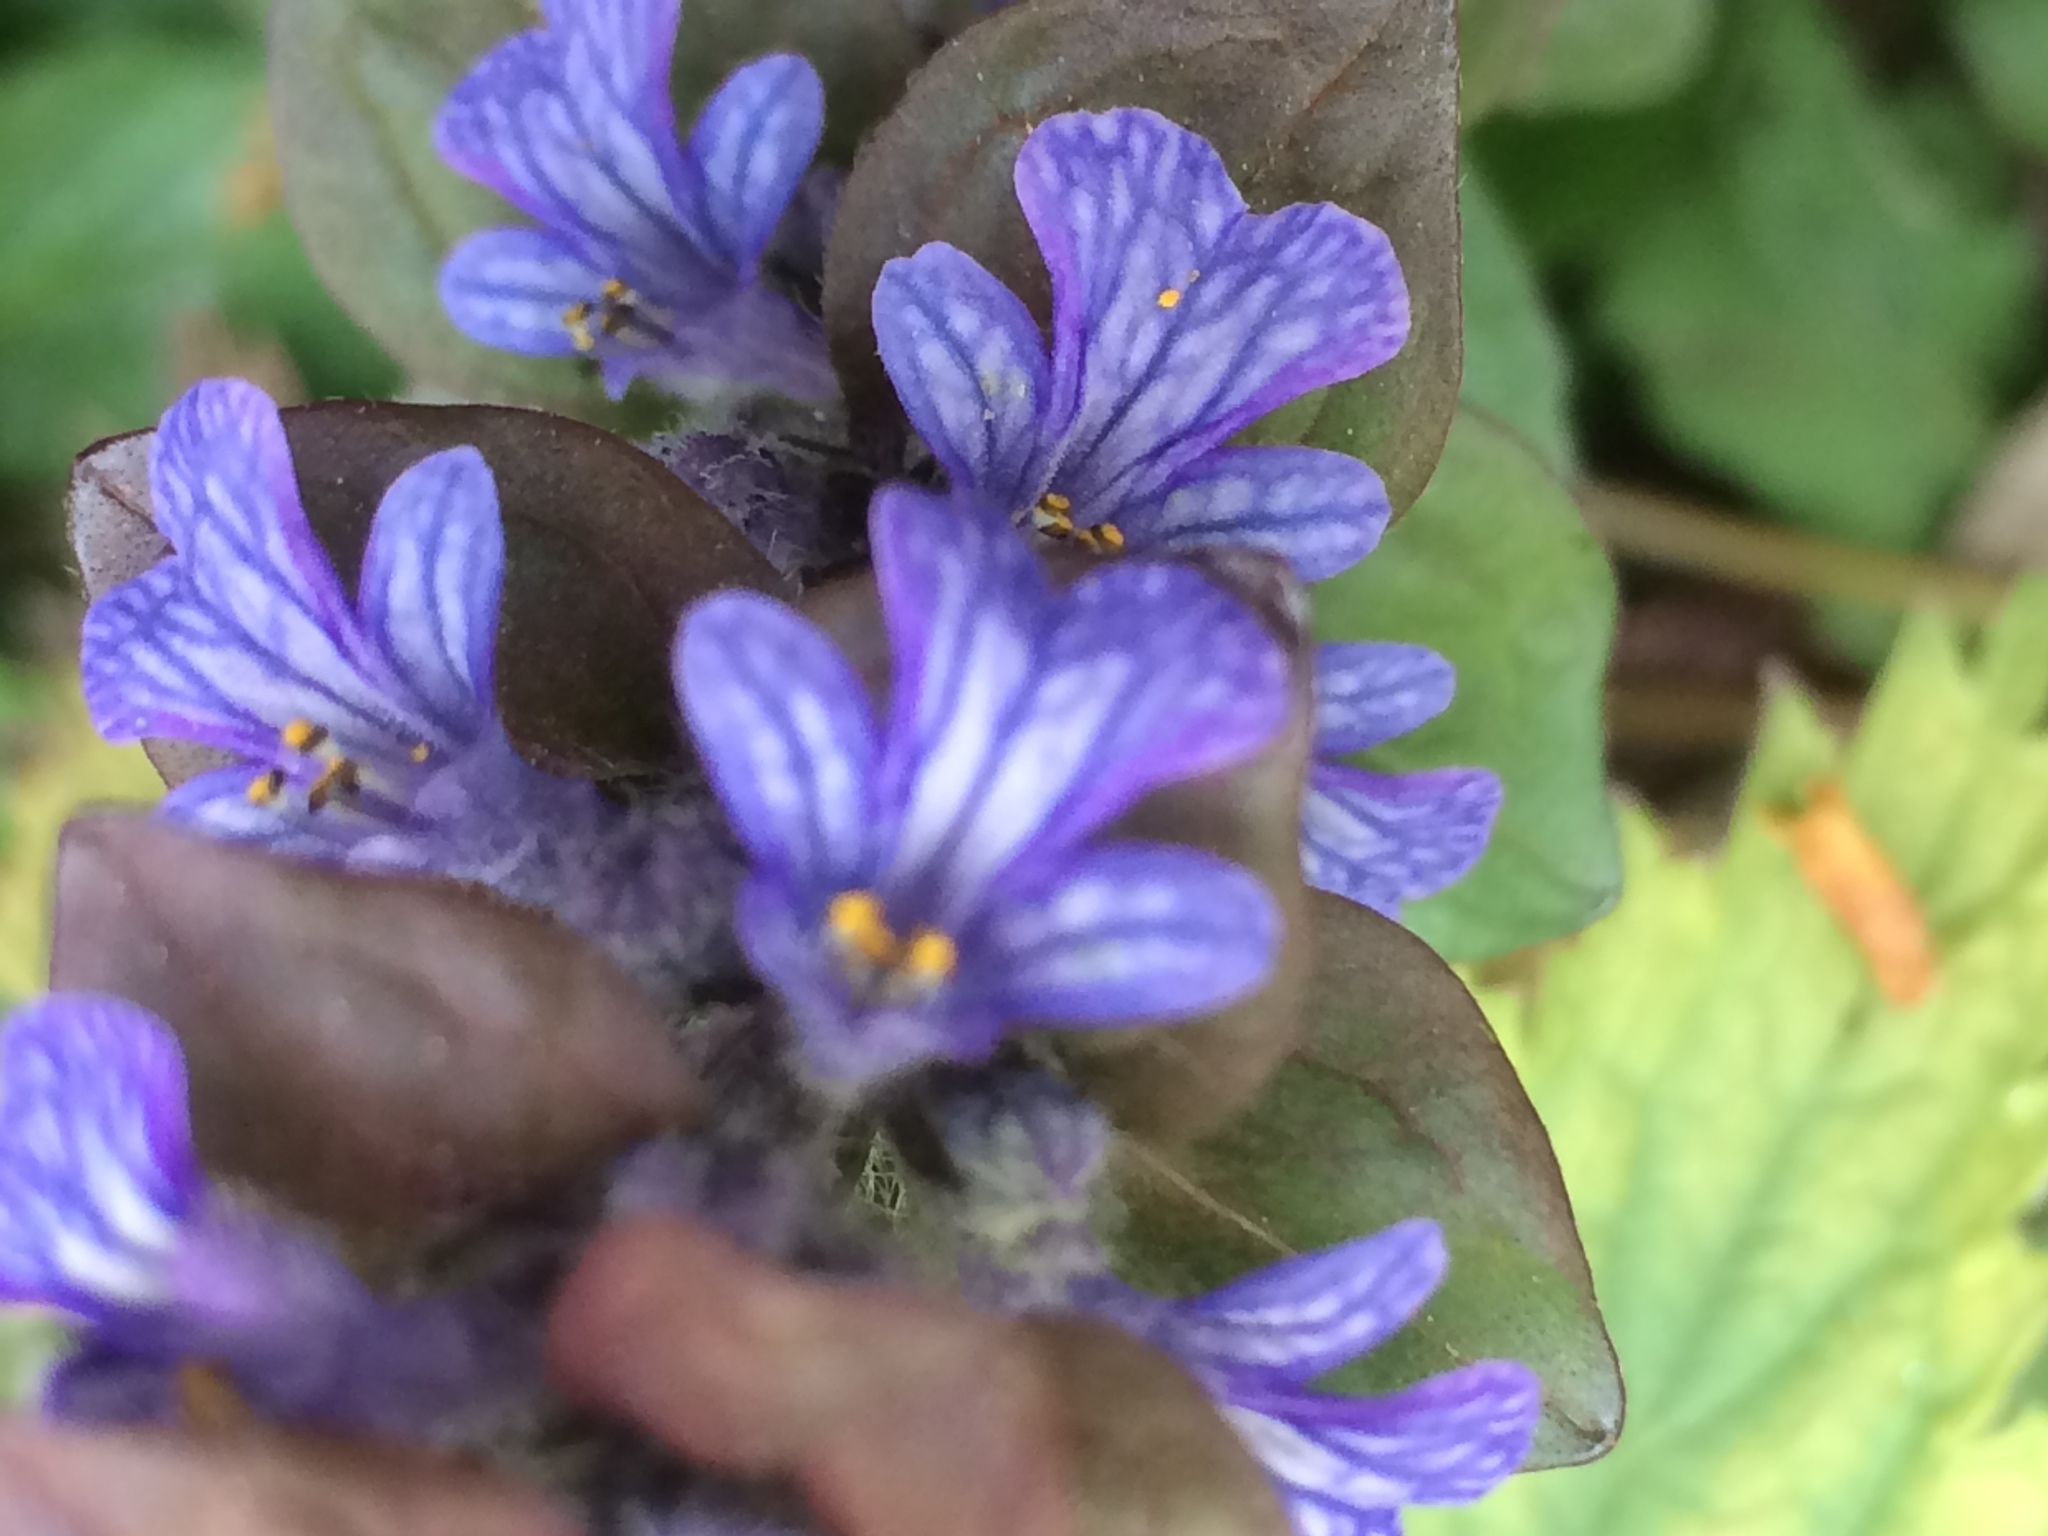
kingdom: Plantae
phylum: Tracheophyta
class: Magnoliopsida
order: Lamiales
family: Lamiaceae
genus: Ajuga
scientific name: Ajuga reptans
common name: Bugle
